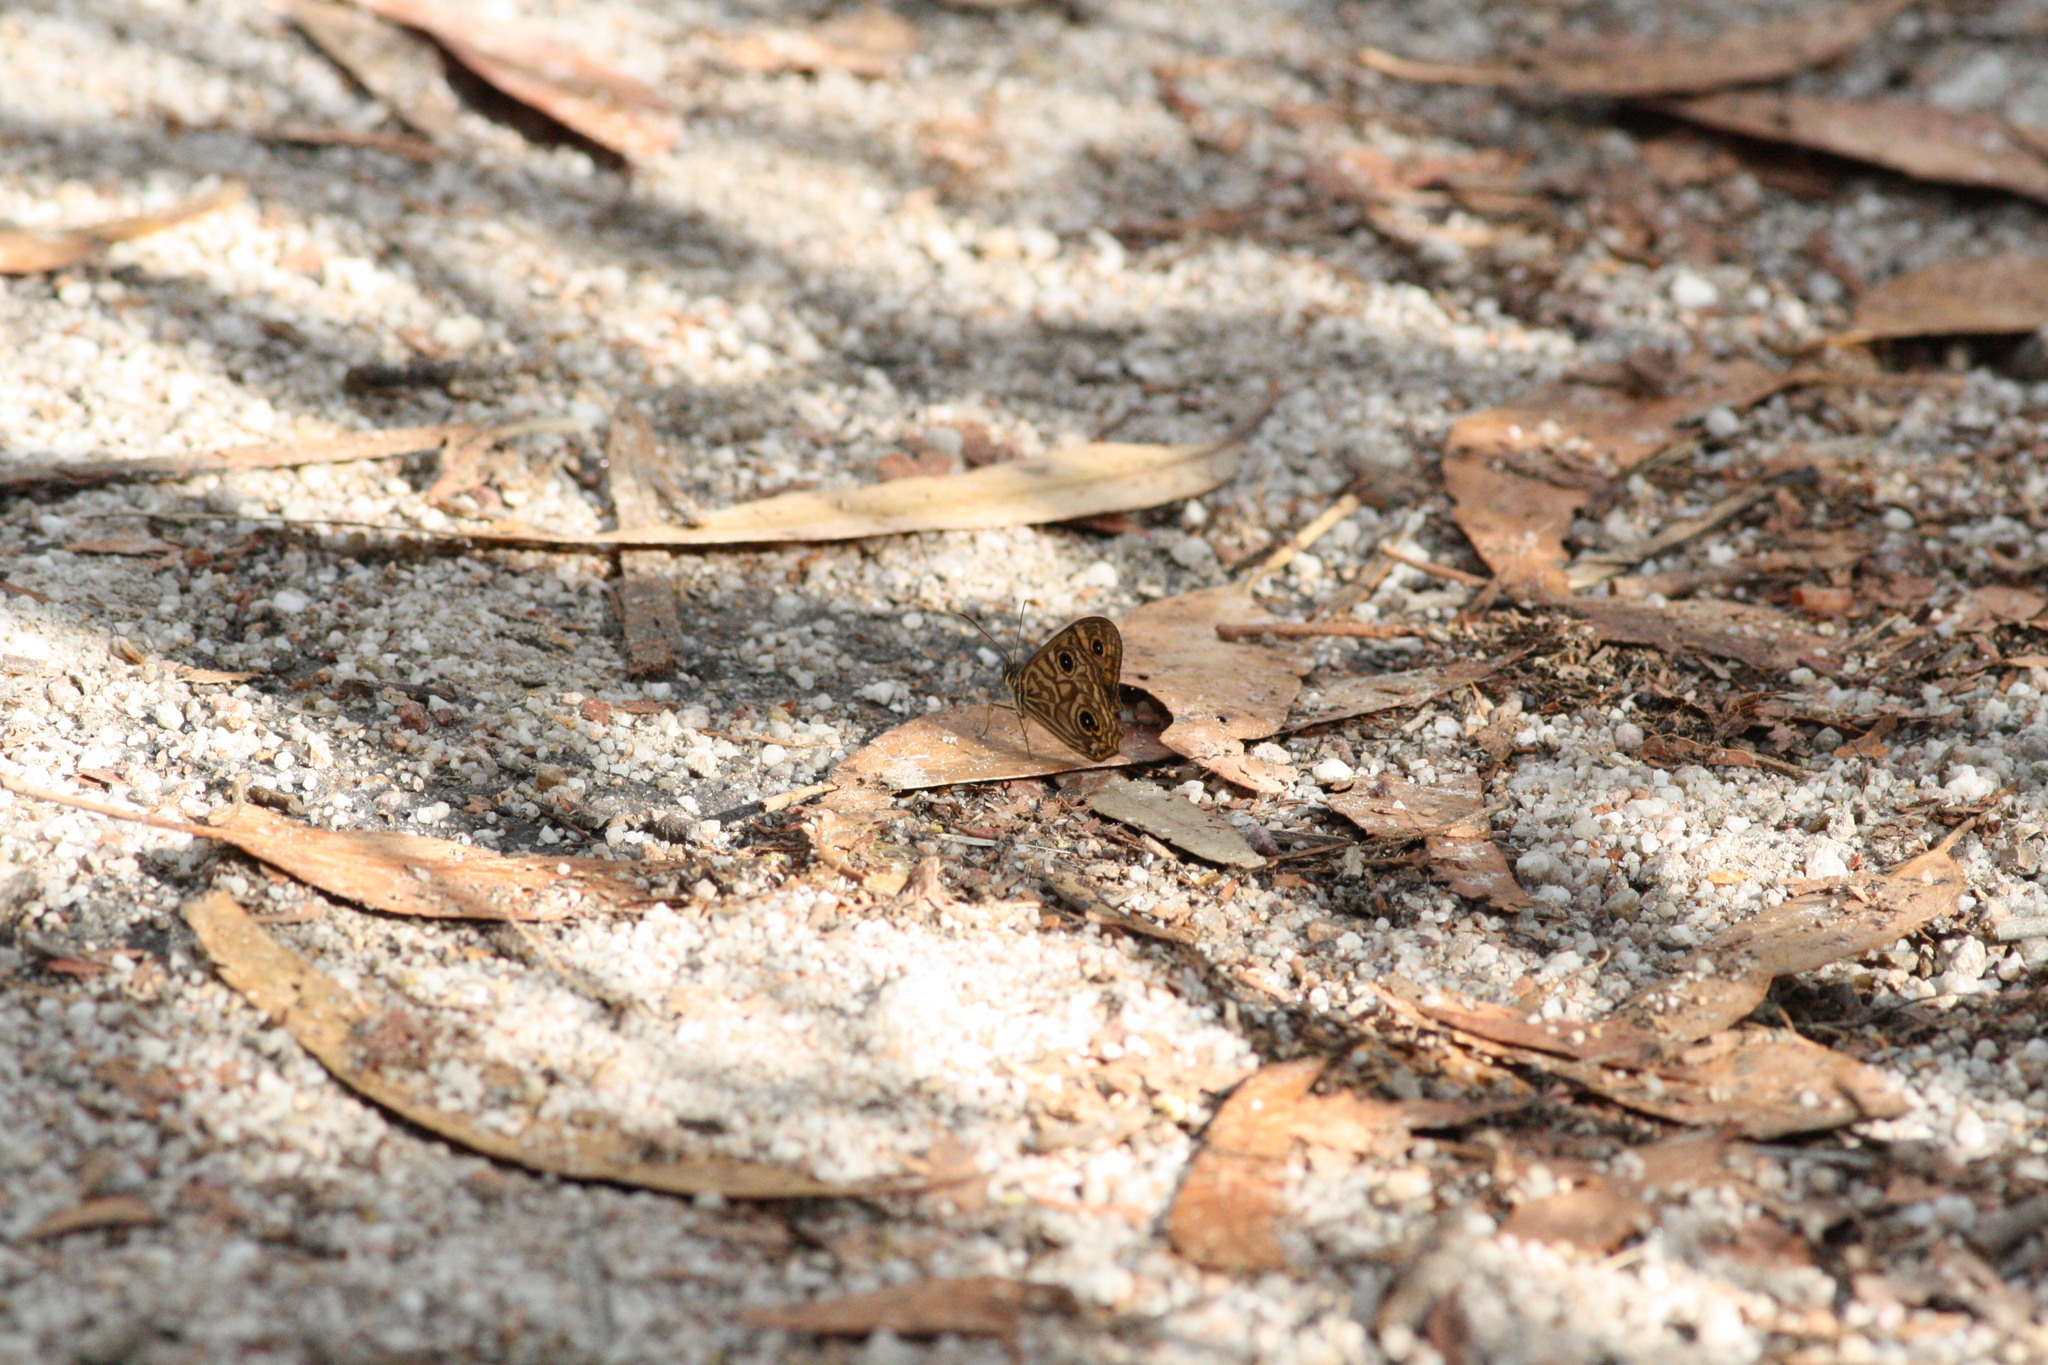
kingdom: Animalia
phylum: Arthropoda
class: Insecta
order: Lepidoptera
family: Nymphalidae
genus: Geitoneura
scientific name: Geitoneura acantha
